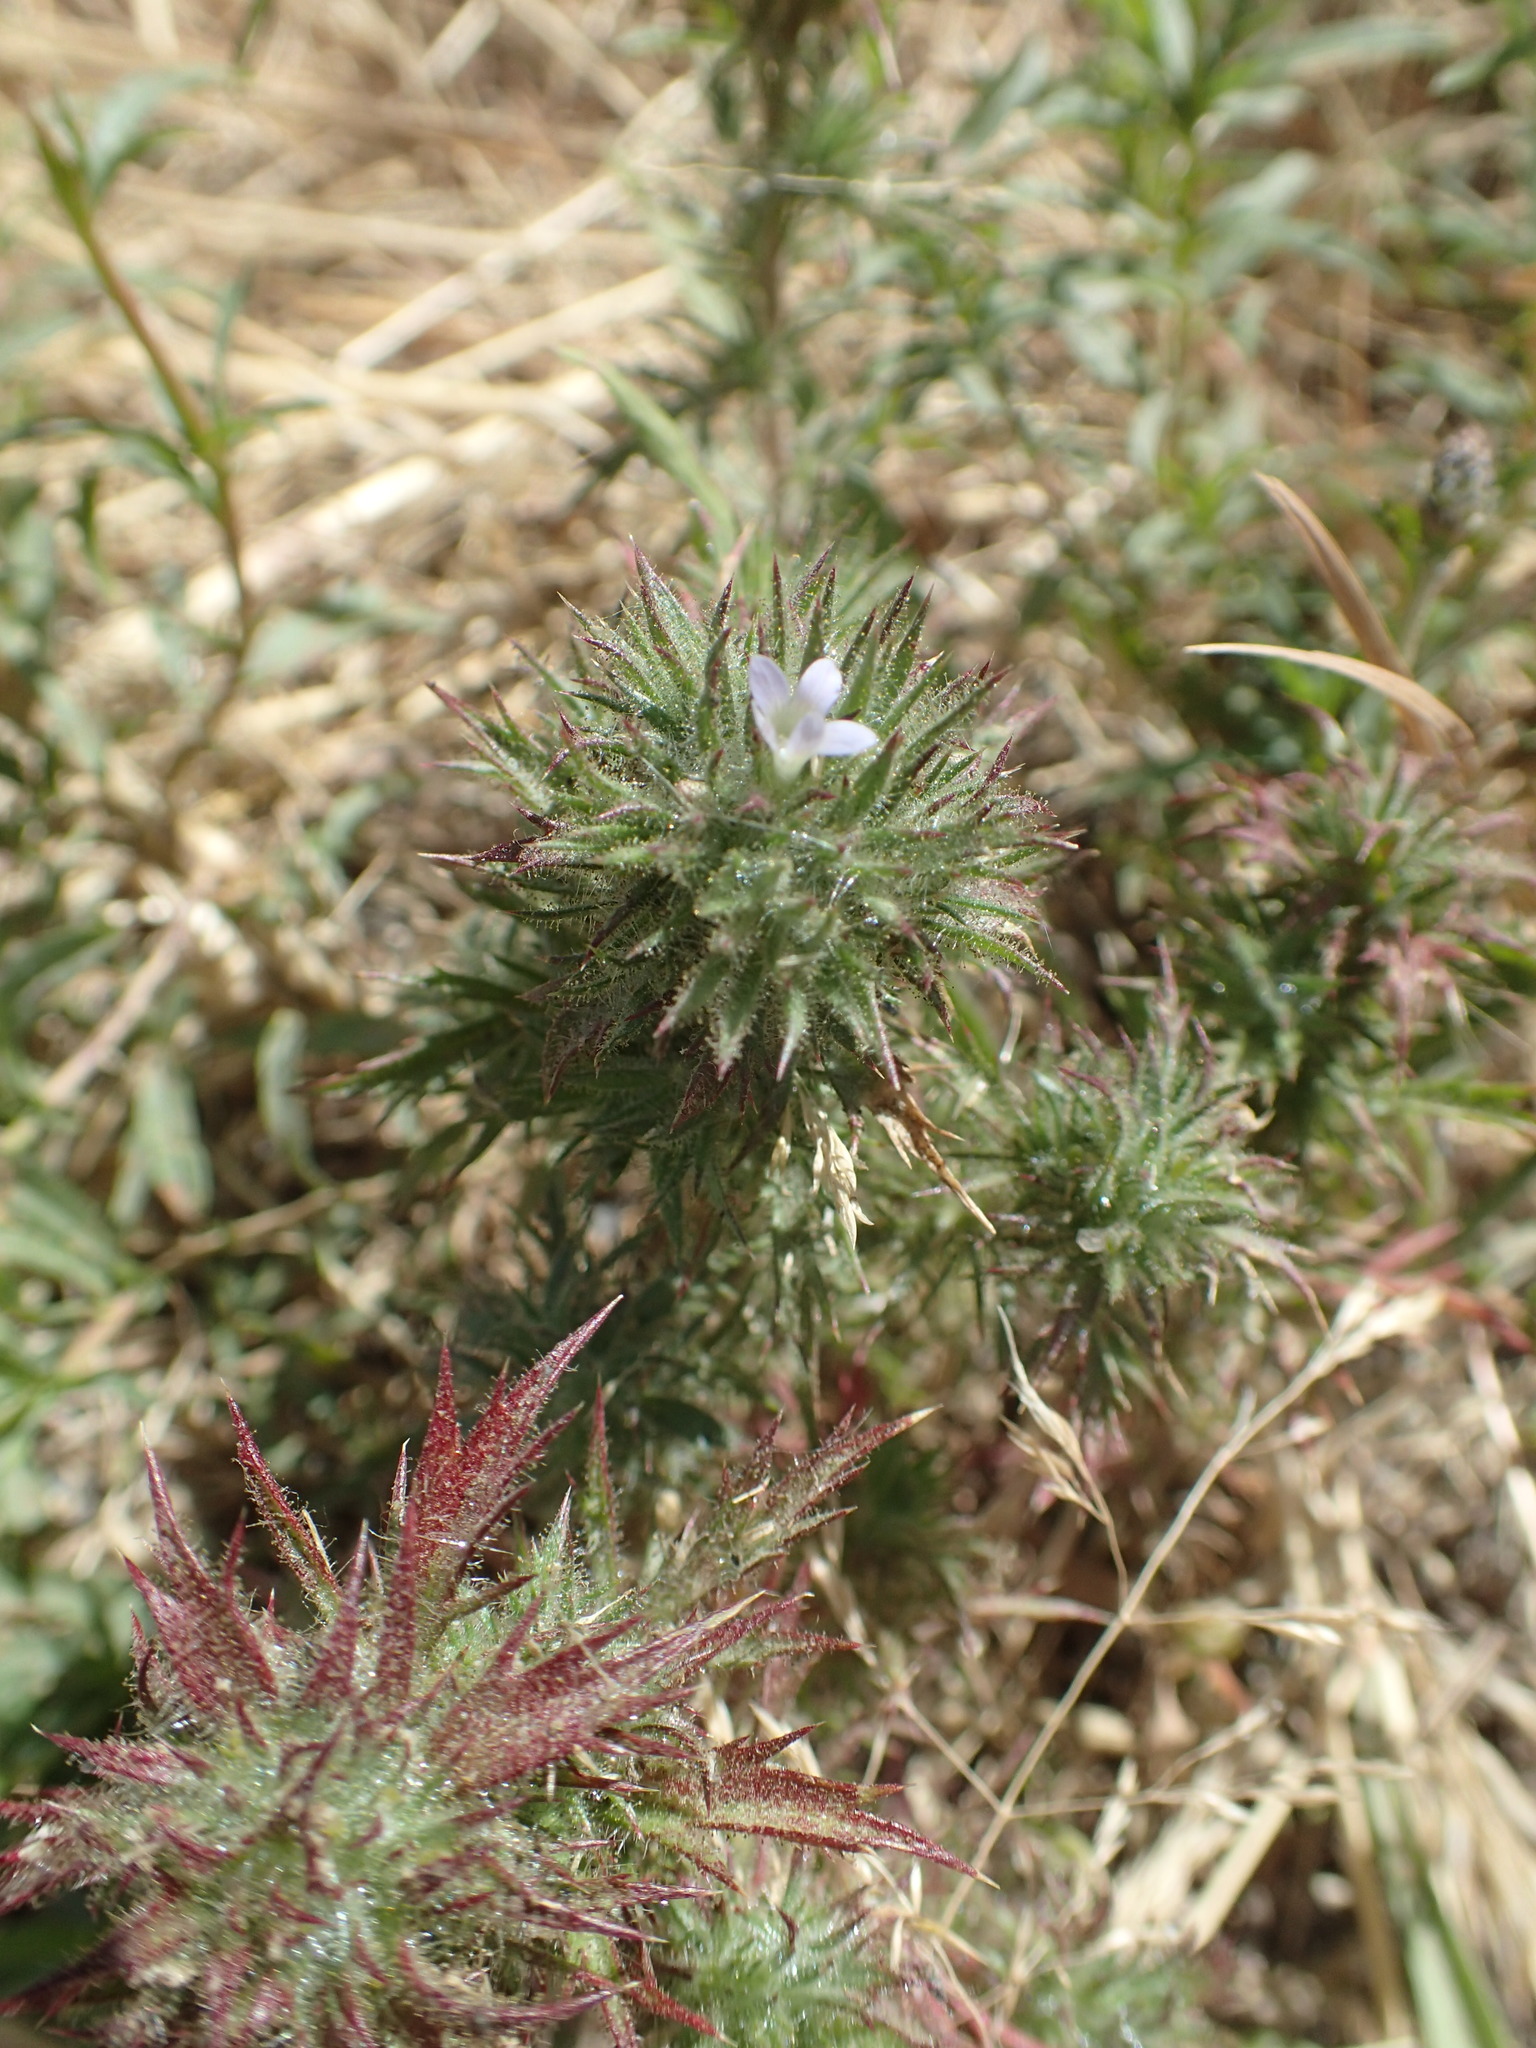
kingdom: Plantae
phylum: Tracheophyta
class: Magnoliopsida
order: Ericales
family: Polemoniaceae
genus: Navarretia
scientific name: Navarretia squarrosa
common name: Skunkweed
